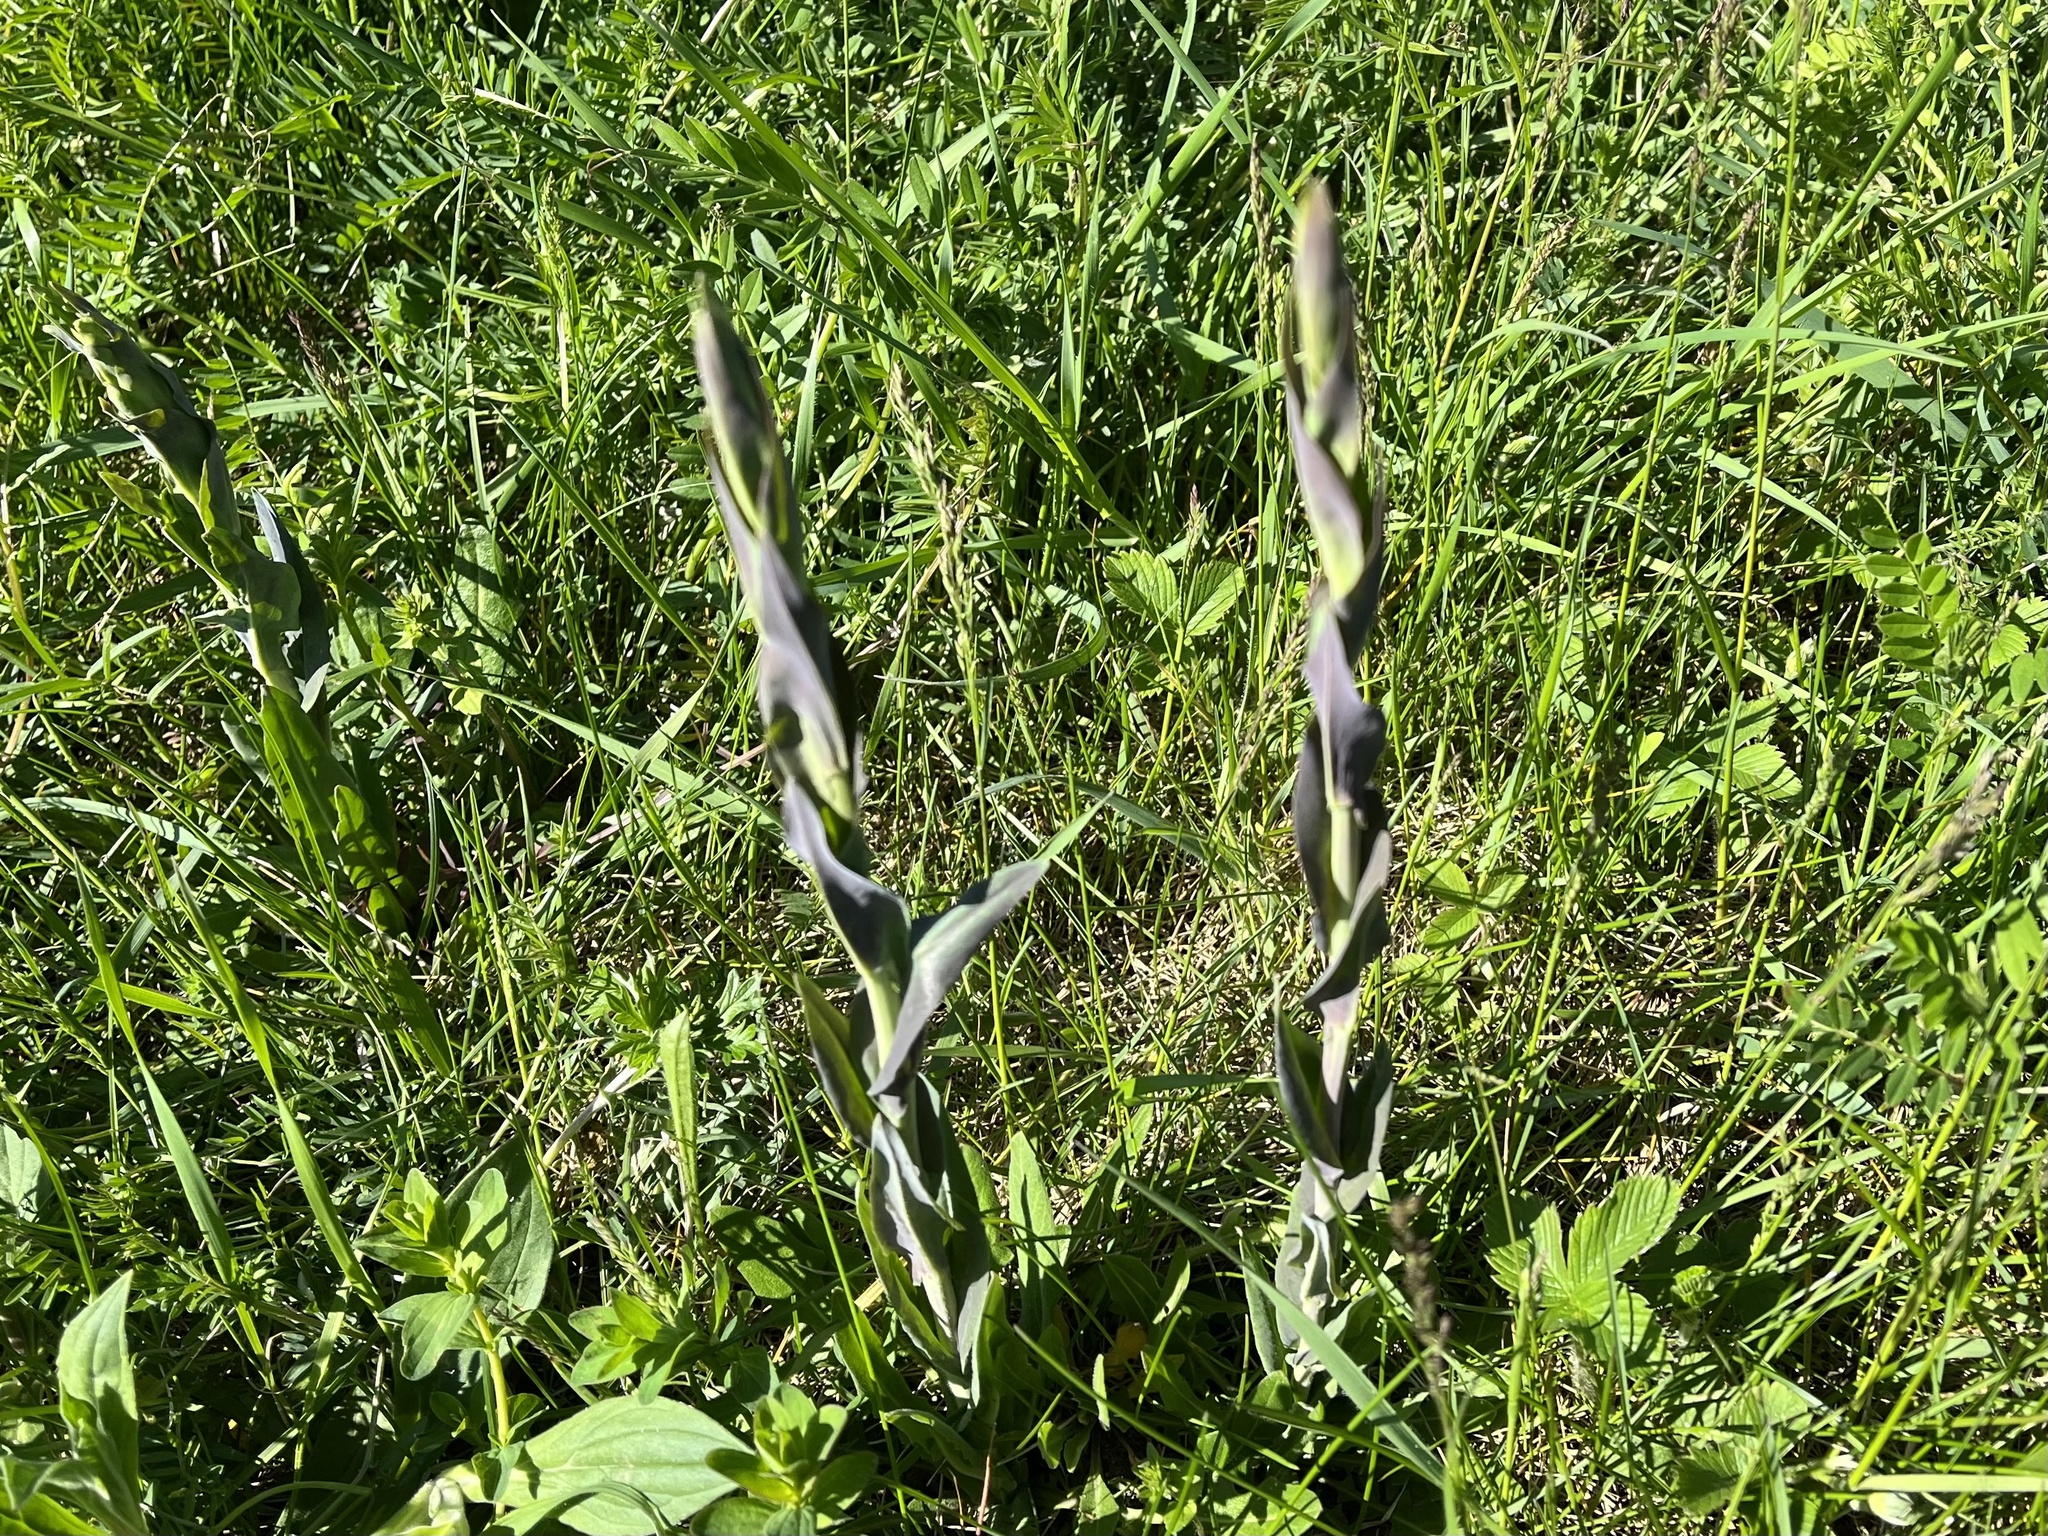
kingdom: Plantae
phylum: Tracheophyta
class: Magnoliopsida
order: Brassicales
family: Brassicaceae
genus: Turritis
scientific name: Turritis glabra
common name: Tower rockcress
